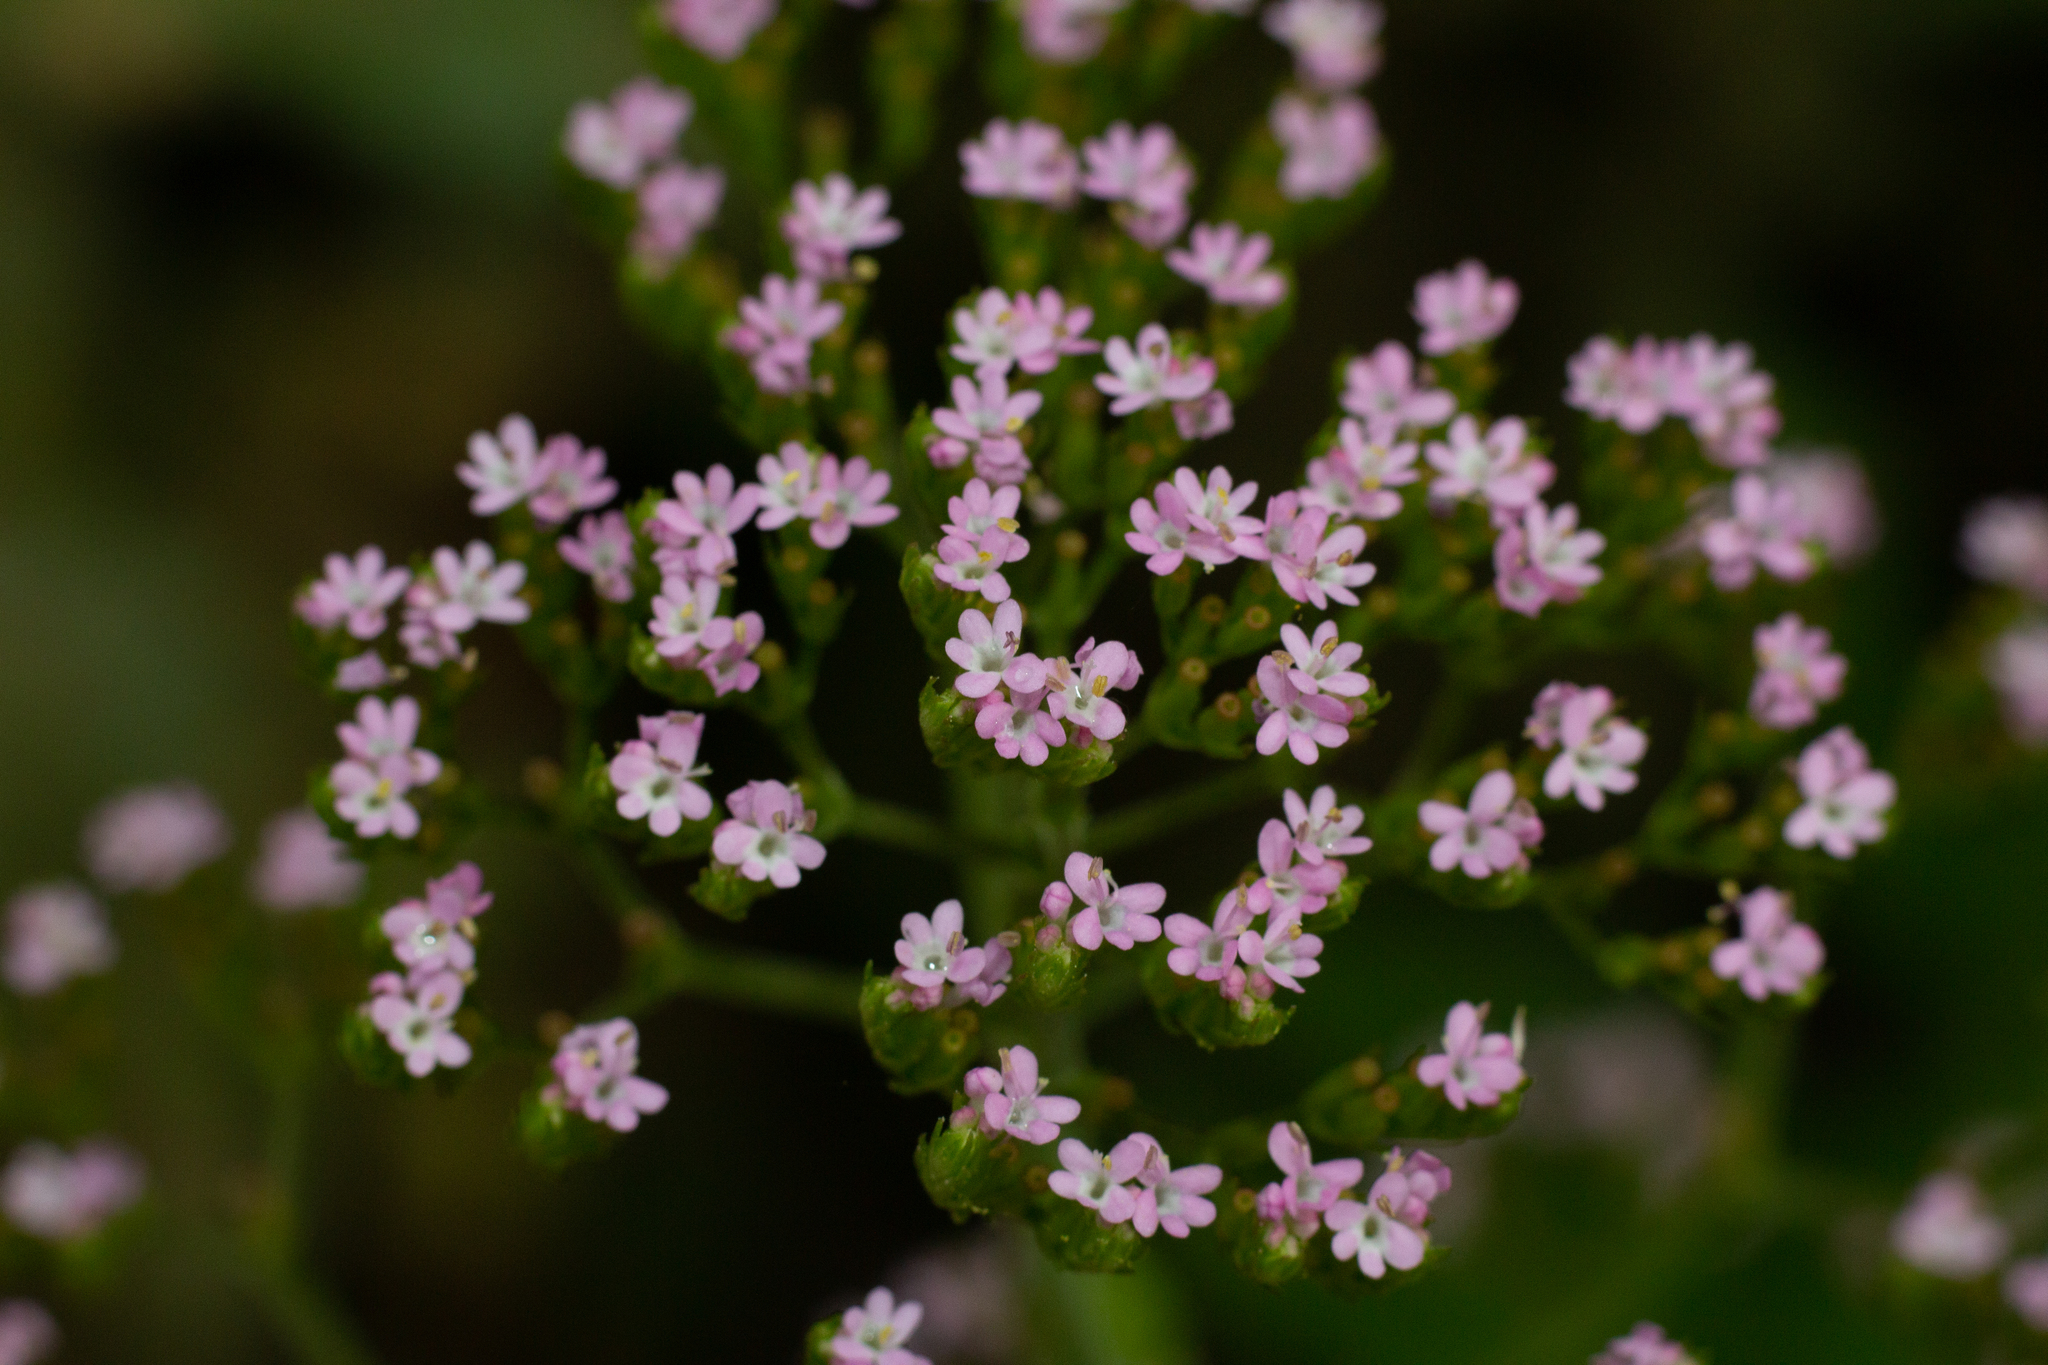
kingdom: Plantae
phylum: Tracheophyta
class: Magnoliopsida
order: Dipsacales
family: Caprifoliaceae
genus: Centranthus
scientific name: Centranthus calcitrapae
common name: Annual valerian
